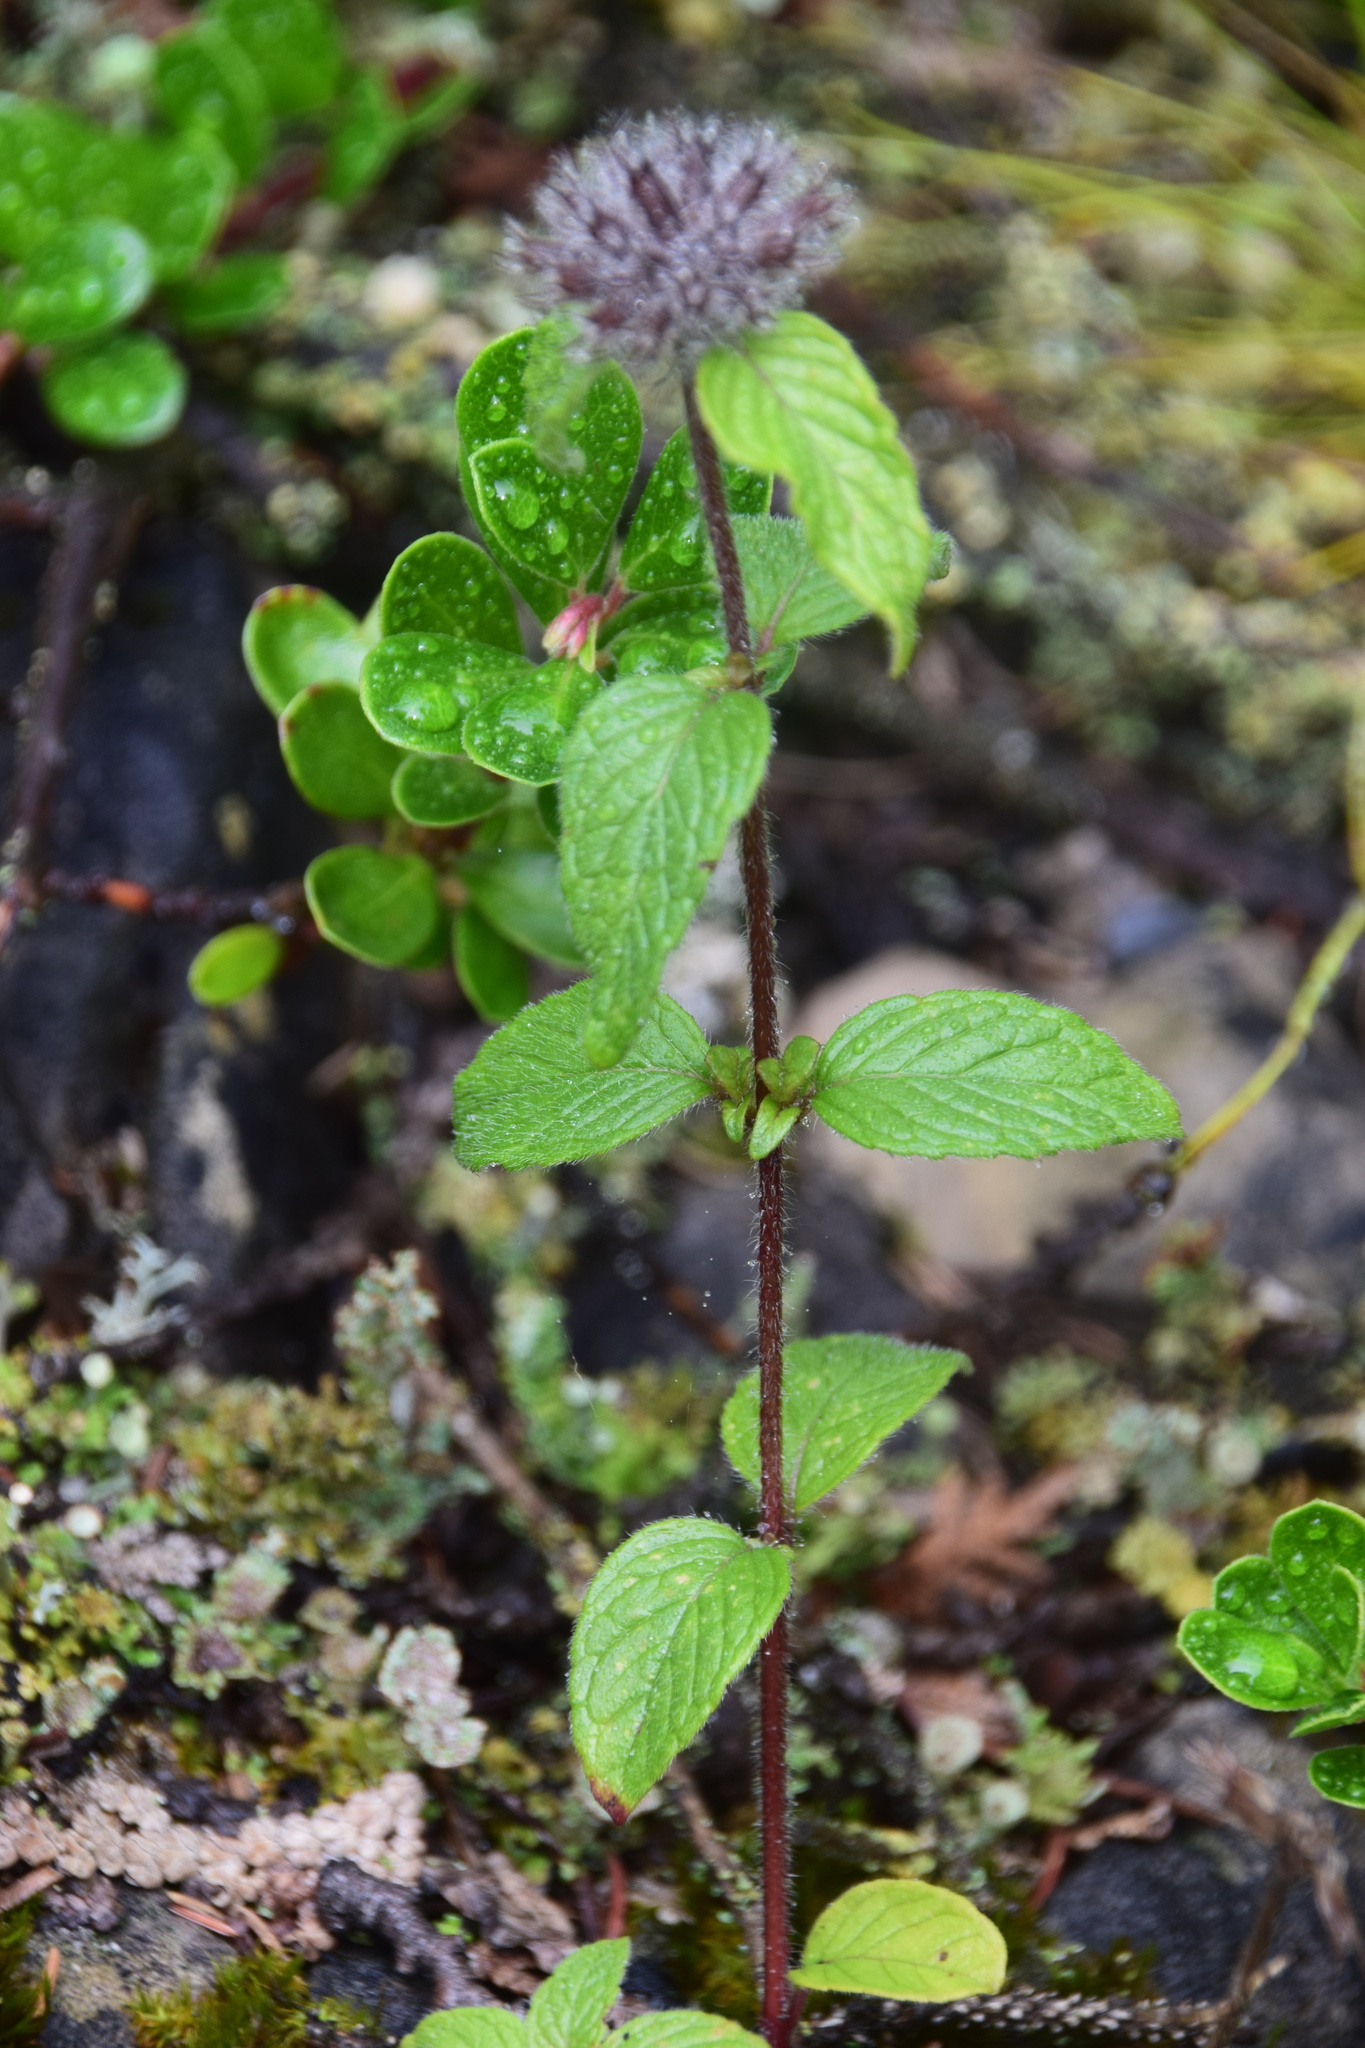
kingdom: Plantae
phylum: Tracheophyta
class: Magnoliopsida
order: Lamiales
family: Lamiaceae
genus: Clinopodium
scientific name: Clinopodium vulgare
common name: Wild basil
